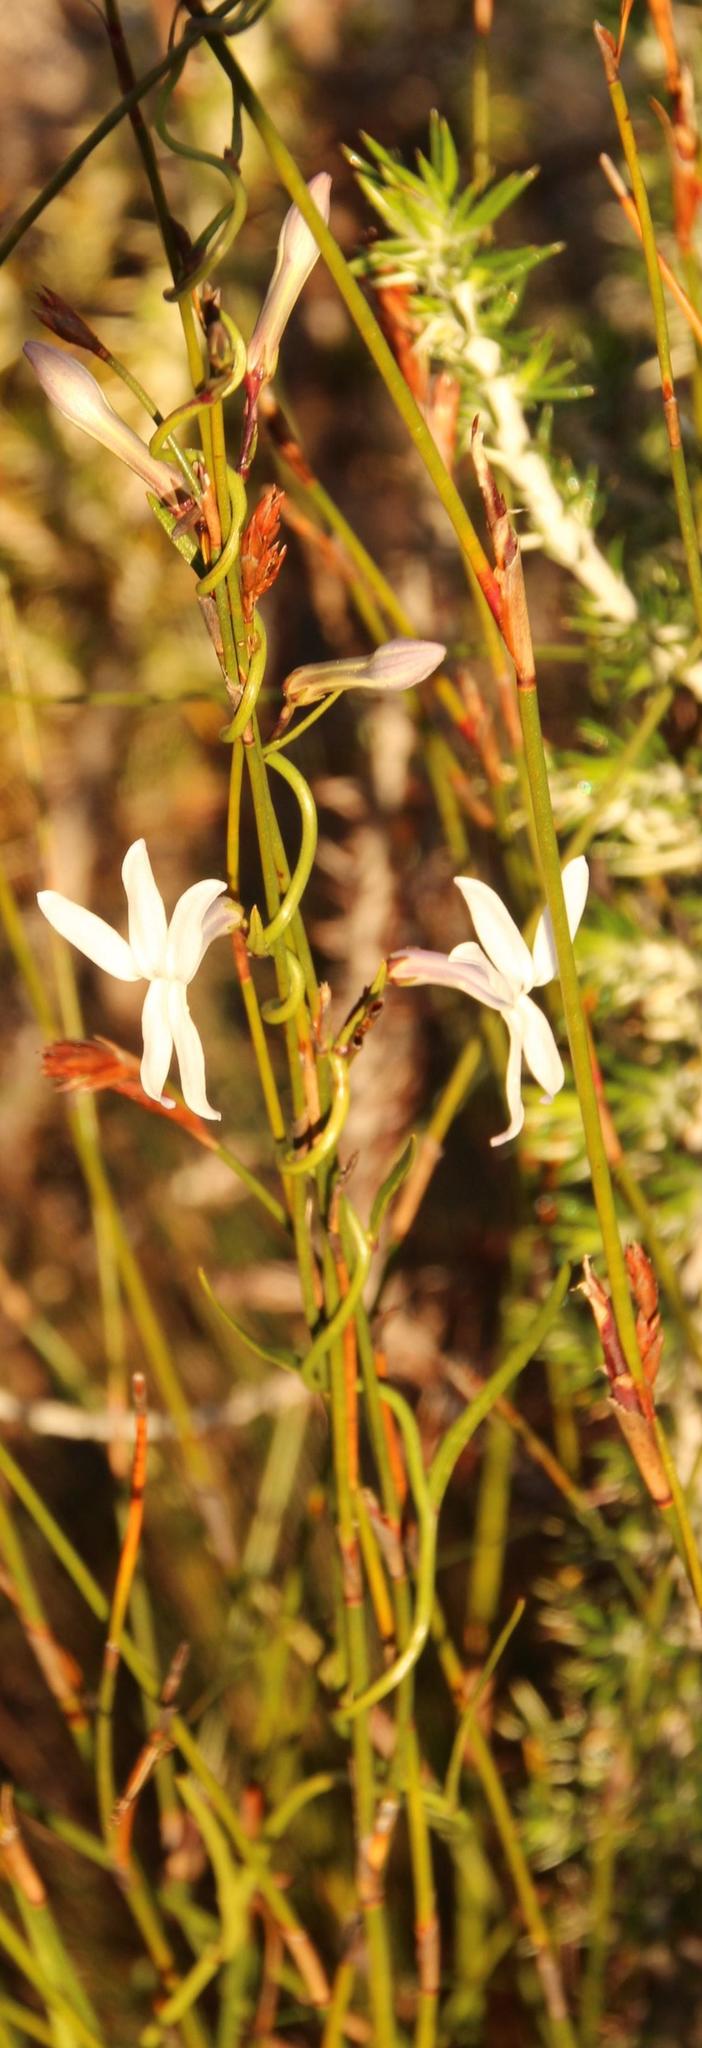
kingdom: Plantae
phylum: Tracheophyta
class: Magnoliopsida
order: Asterales
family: Campanulaceae
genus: Cyphia
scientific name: Cyphia volubilis
